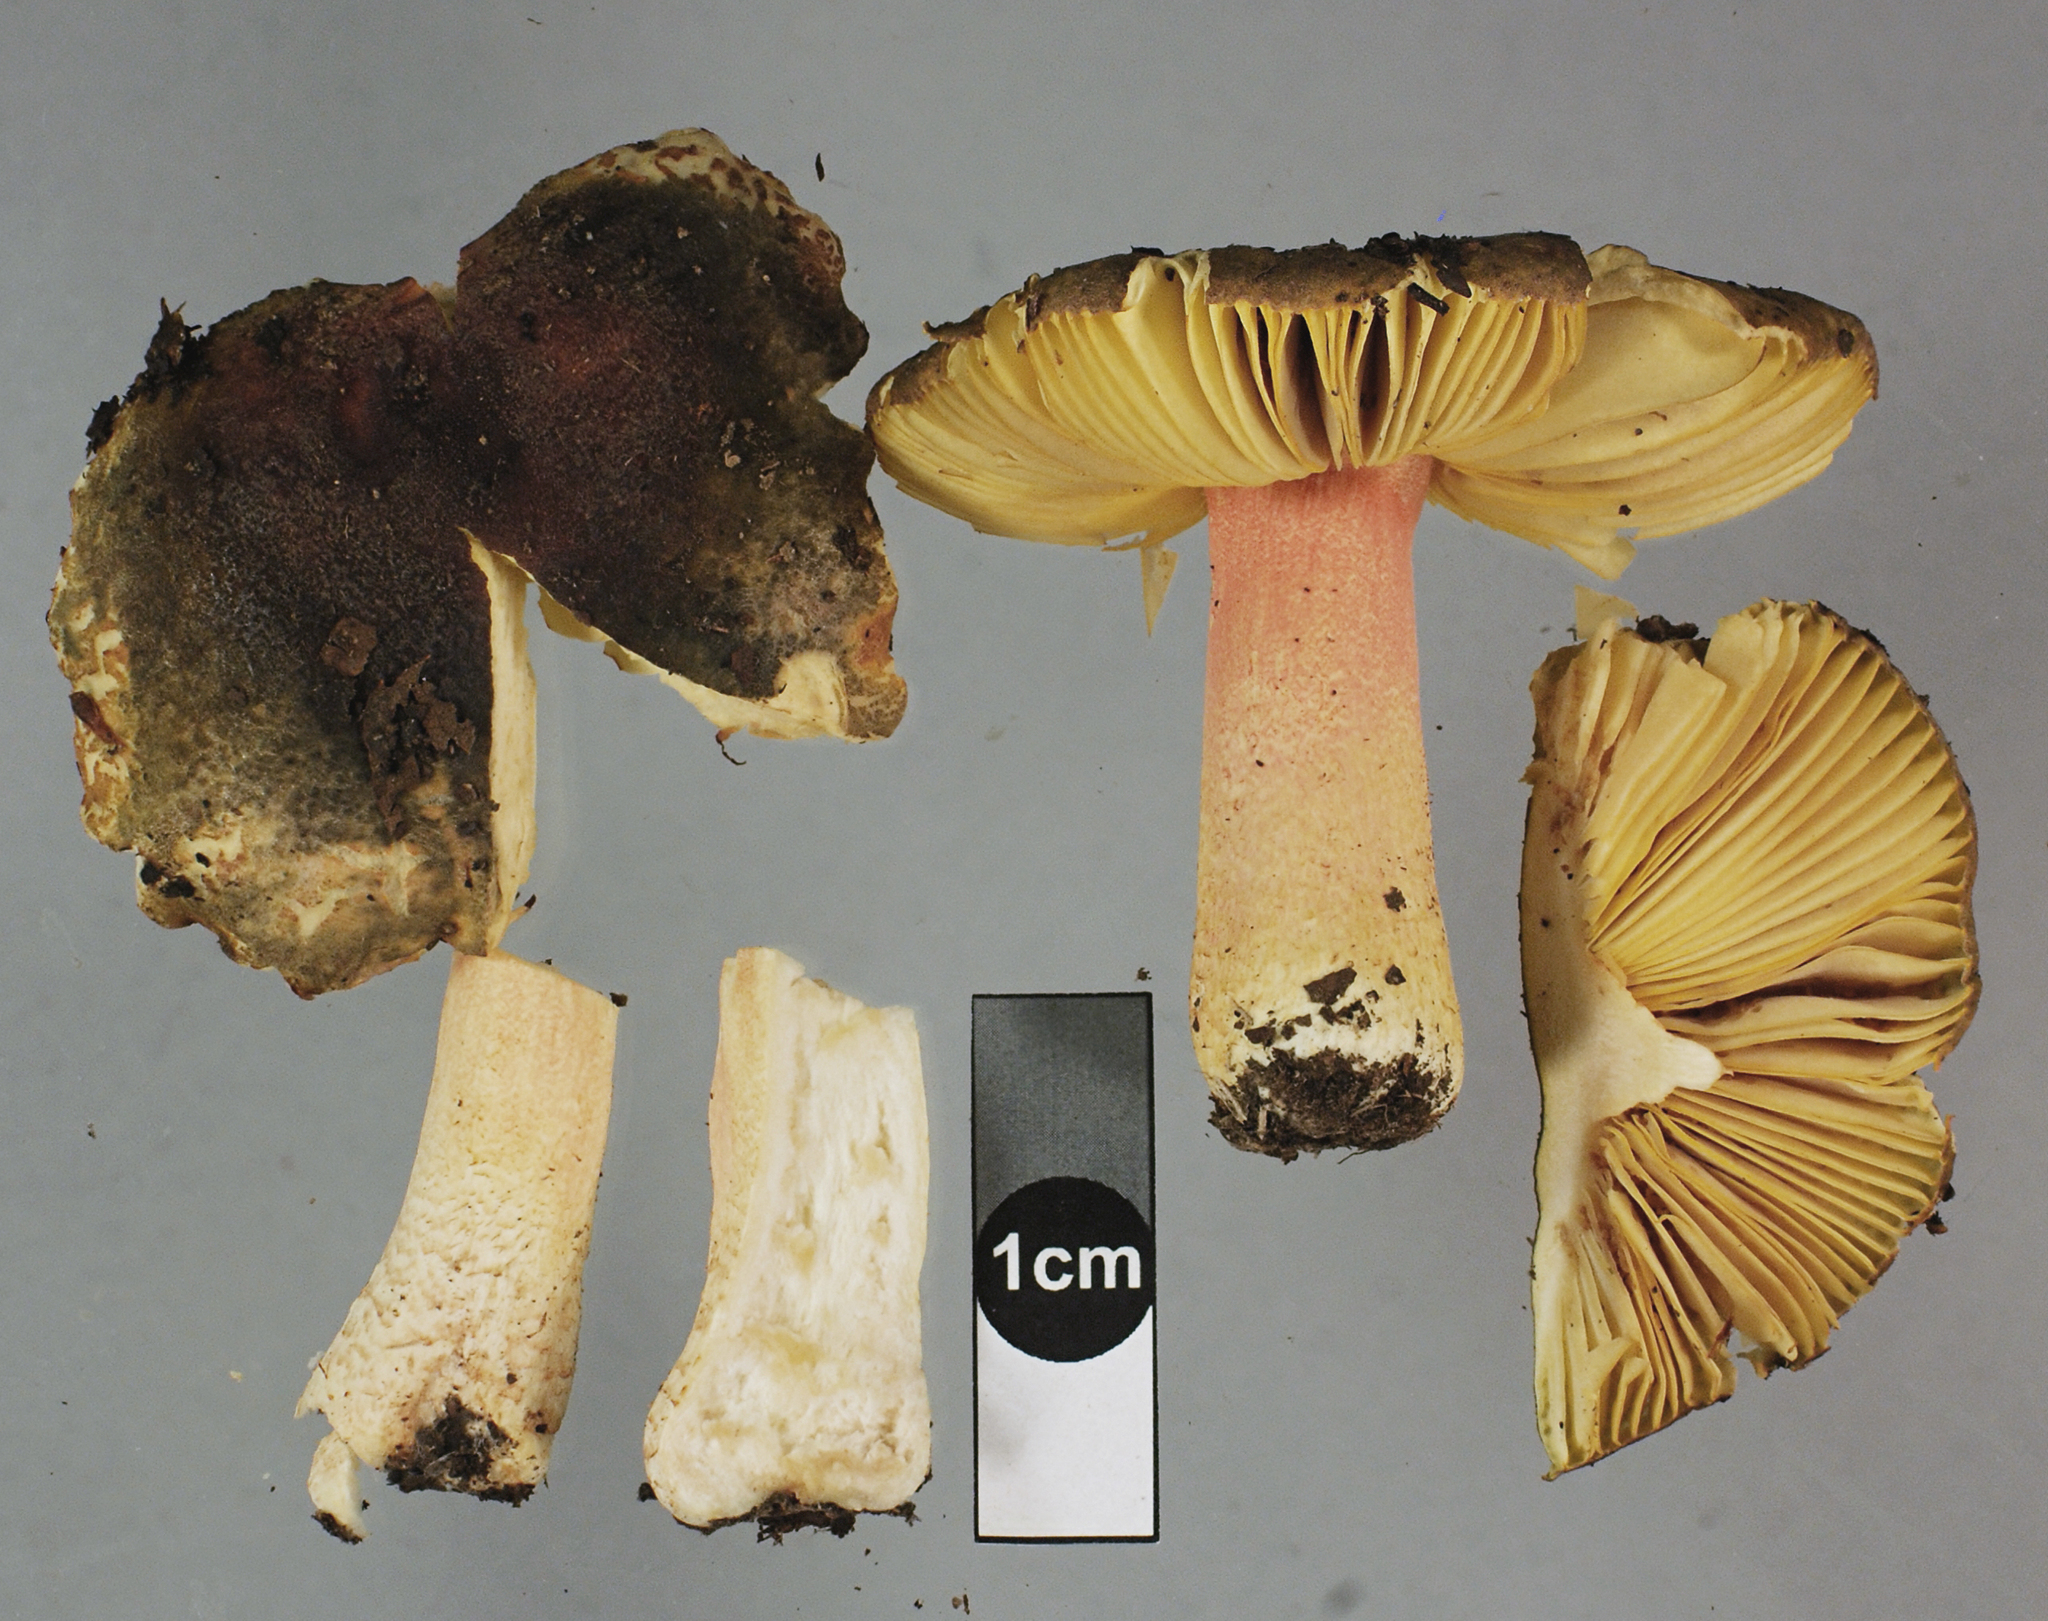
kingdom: Fungi
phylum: Basidiomycota
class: Agaricomycetes
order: Russulales
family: Russulaceae
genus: Russula
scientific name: Russula tricholomopsis
